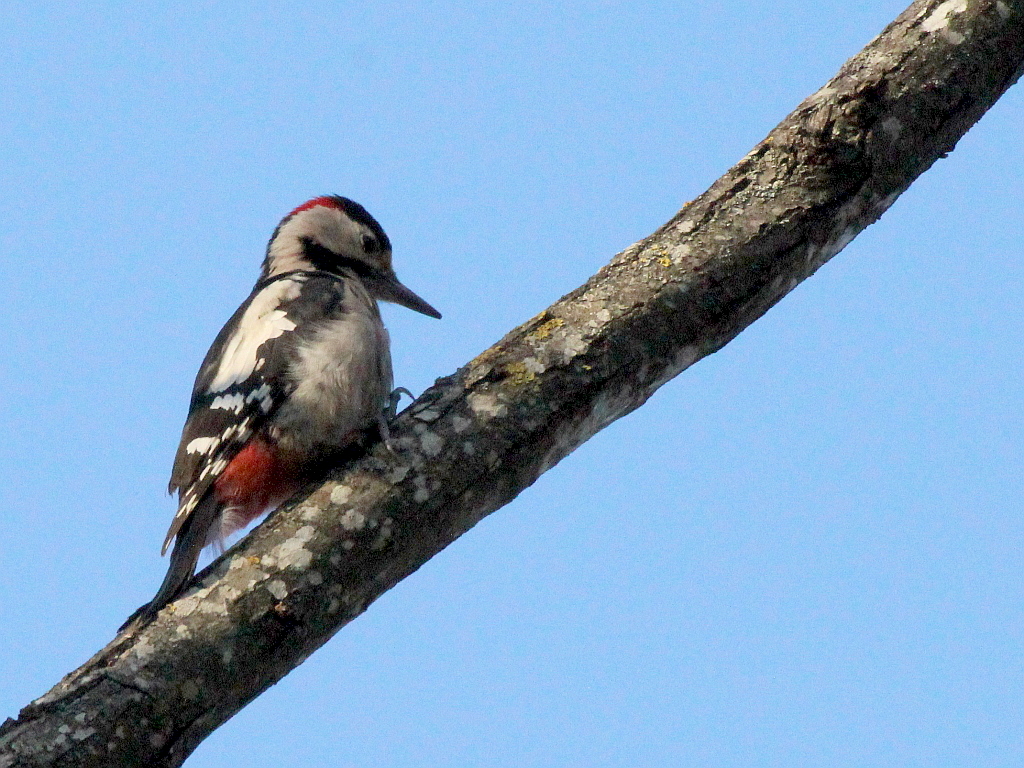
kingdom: Animalia
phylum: Chordata
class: Aves
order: Piciformes
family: Picidae
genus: Dendrocopos
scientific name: Dendrocopos syriacus
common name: Syrian woodpecker
